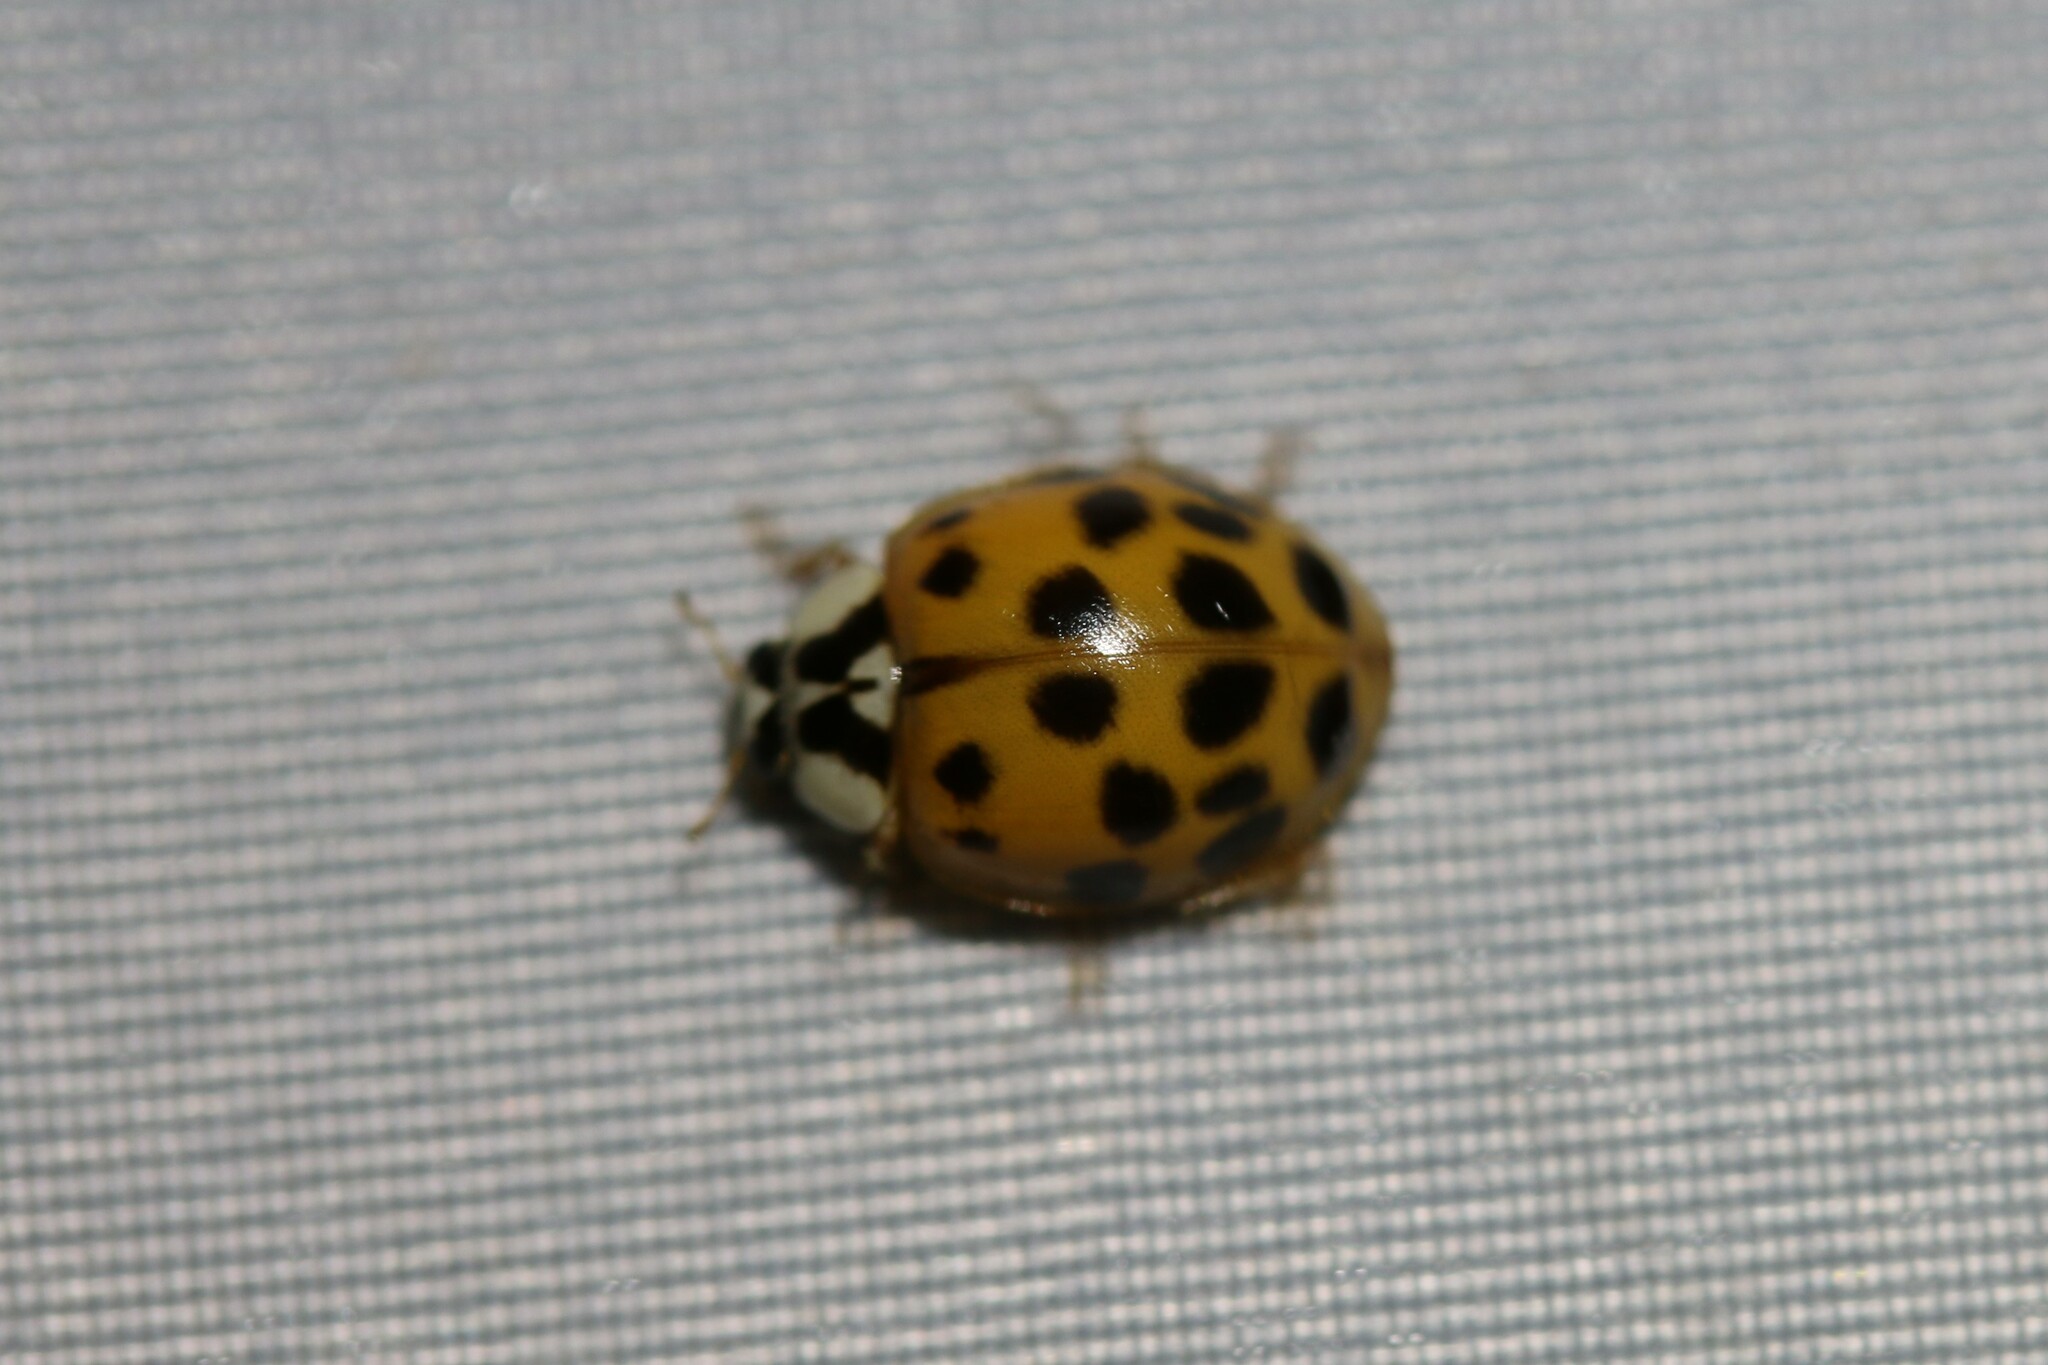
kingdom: Animalia
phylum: Arthropoda
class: Insecta
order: Coleoptera
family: Coccinellidae
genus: Harmonia
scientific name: Harmonia axyridis
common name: Harlequin ladybird
